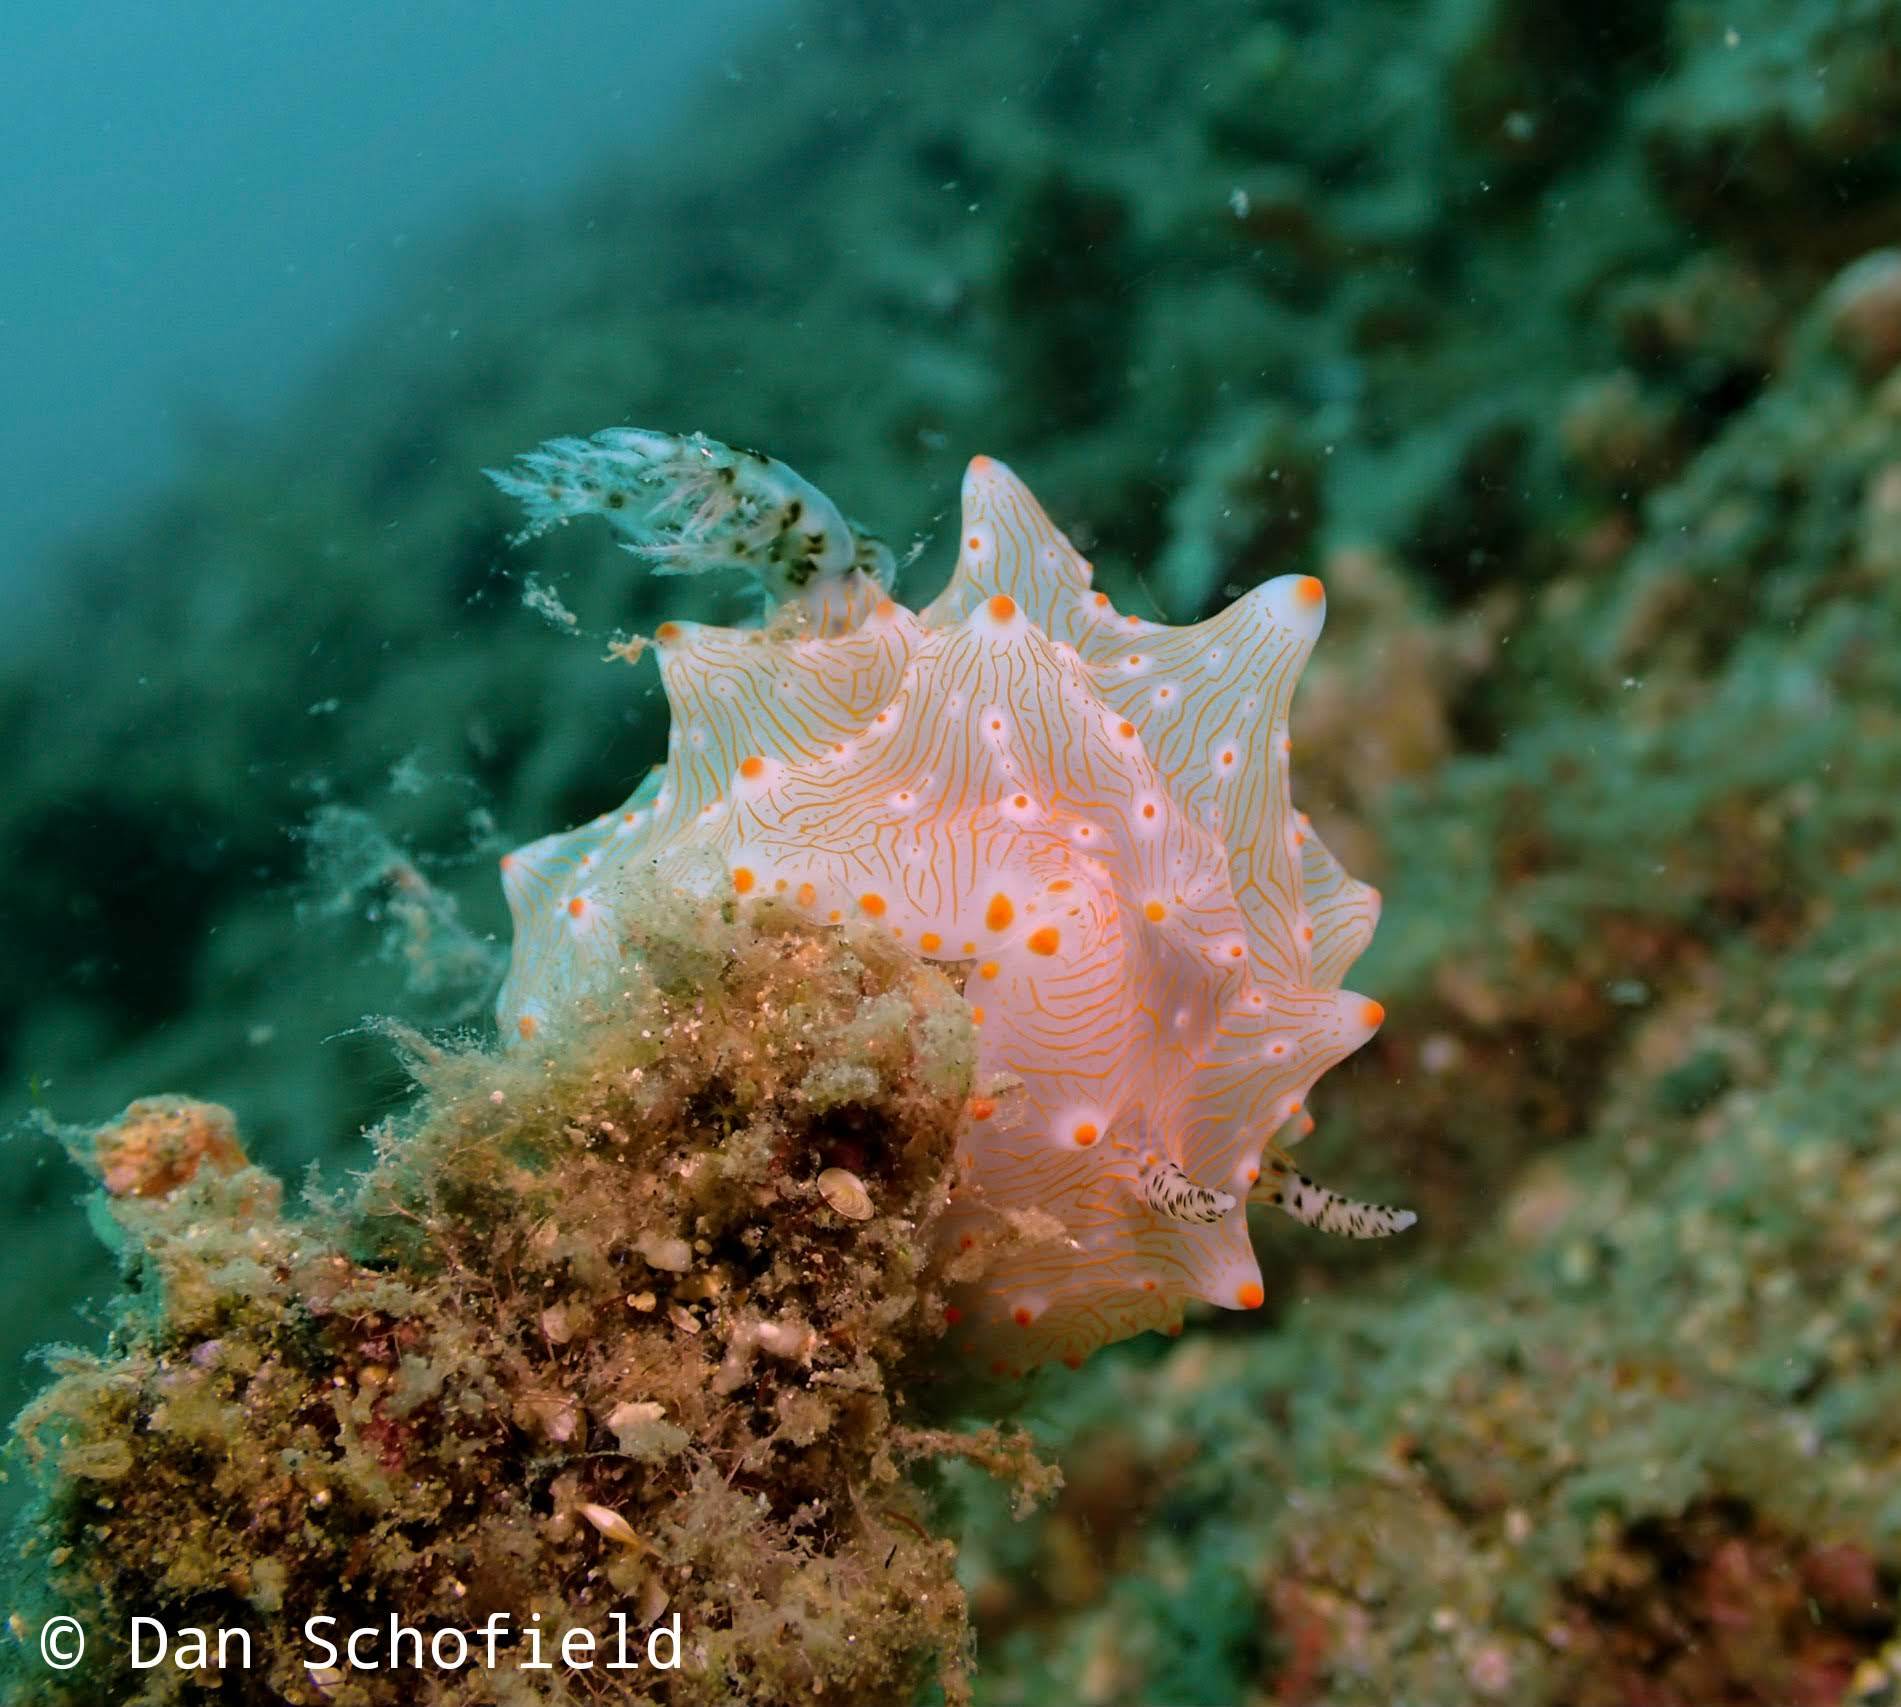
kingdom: Animalia
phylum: Mollusca
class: Gastropoda
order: Nudibranchia
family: Discodorididae
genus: Halgerda
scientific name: Halgerda batangas
